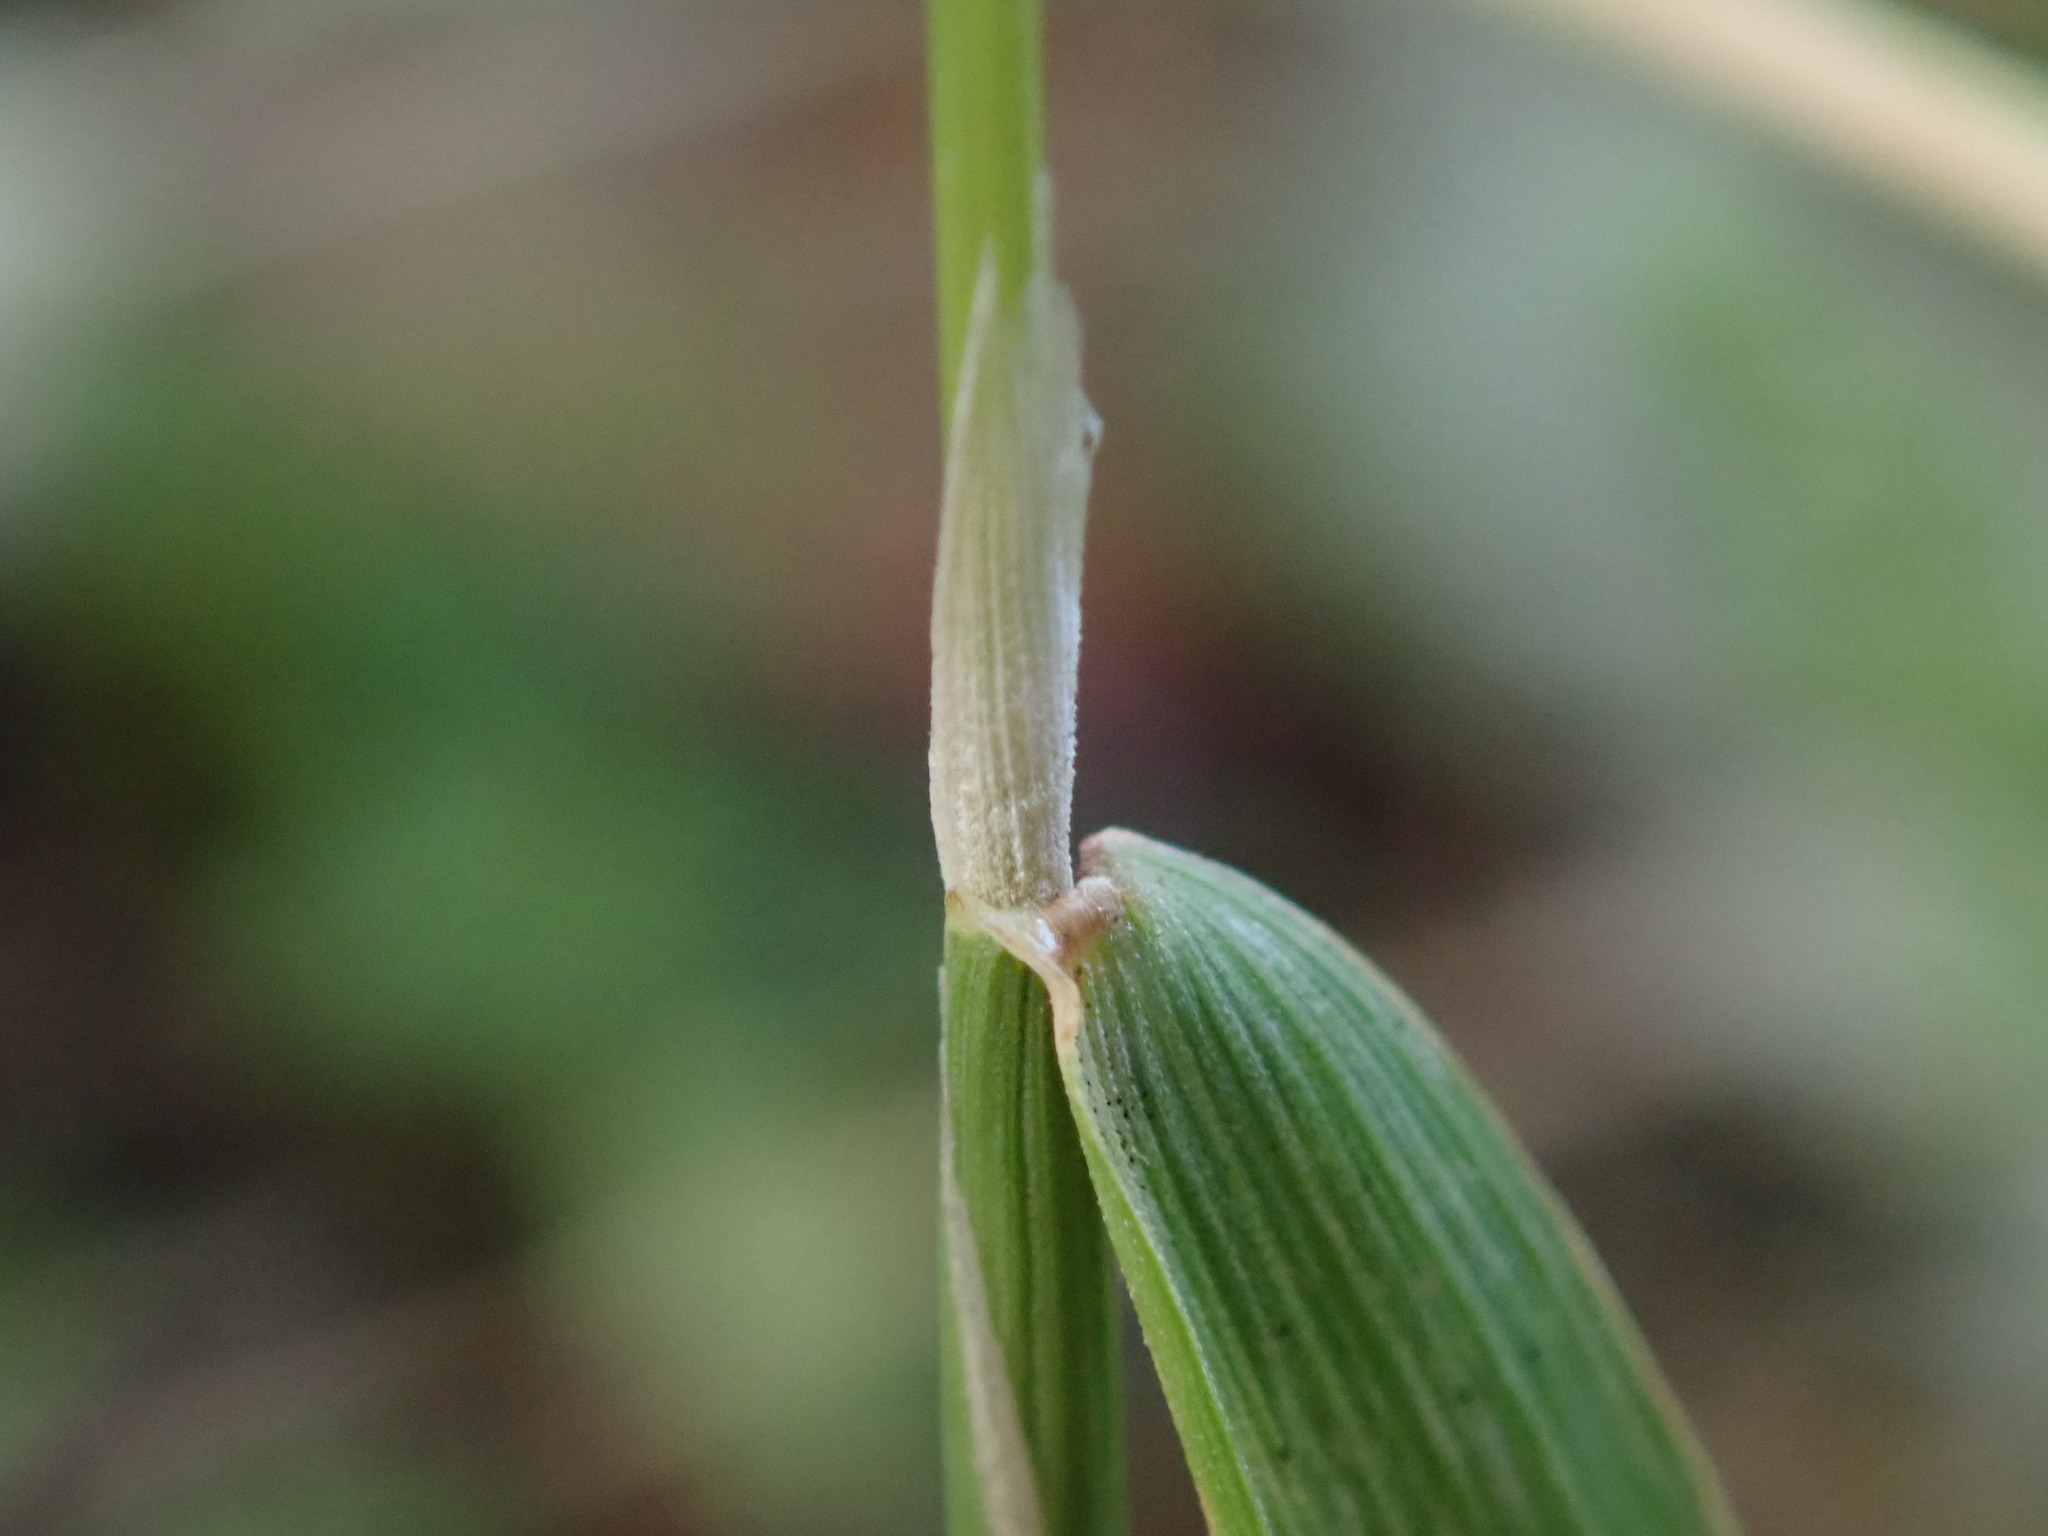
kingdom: Plantae
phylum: Tracheophyta
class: Liliopsida
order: Poales
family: Poaceae
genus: Polypogon
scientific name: Polypogon monspeliensis
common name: Annual rabbitsfoot grass
